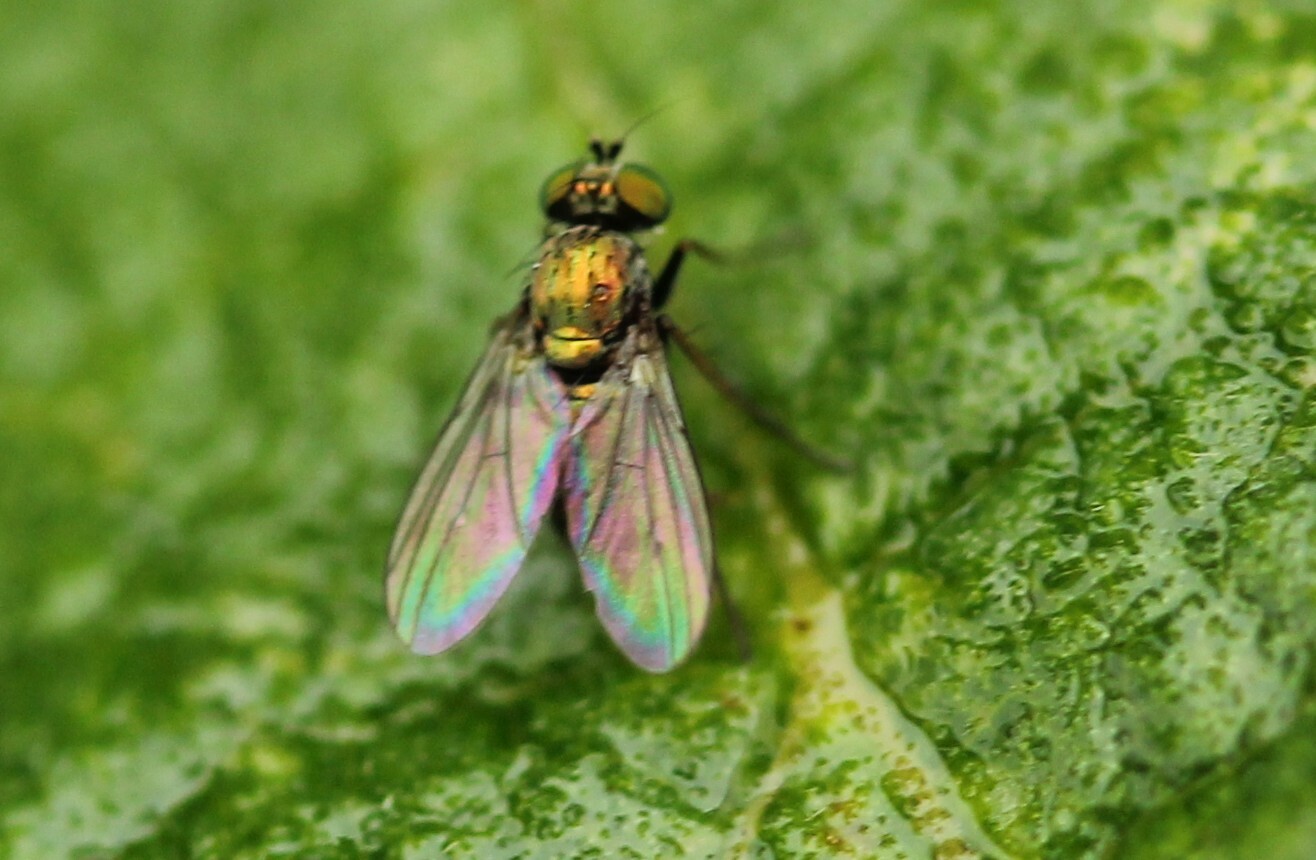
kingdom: Animalia
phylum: Arthropoda
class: Insecta
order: Diptera
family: Dolichopodidae
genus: Chrysotus
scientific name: Chrysotus
